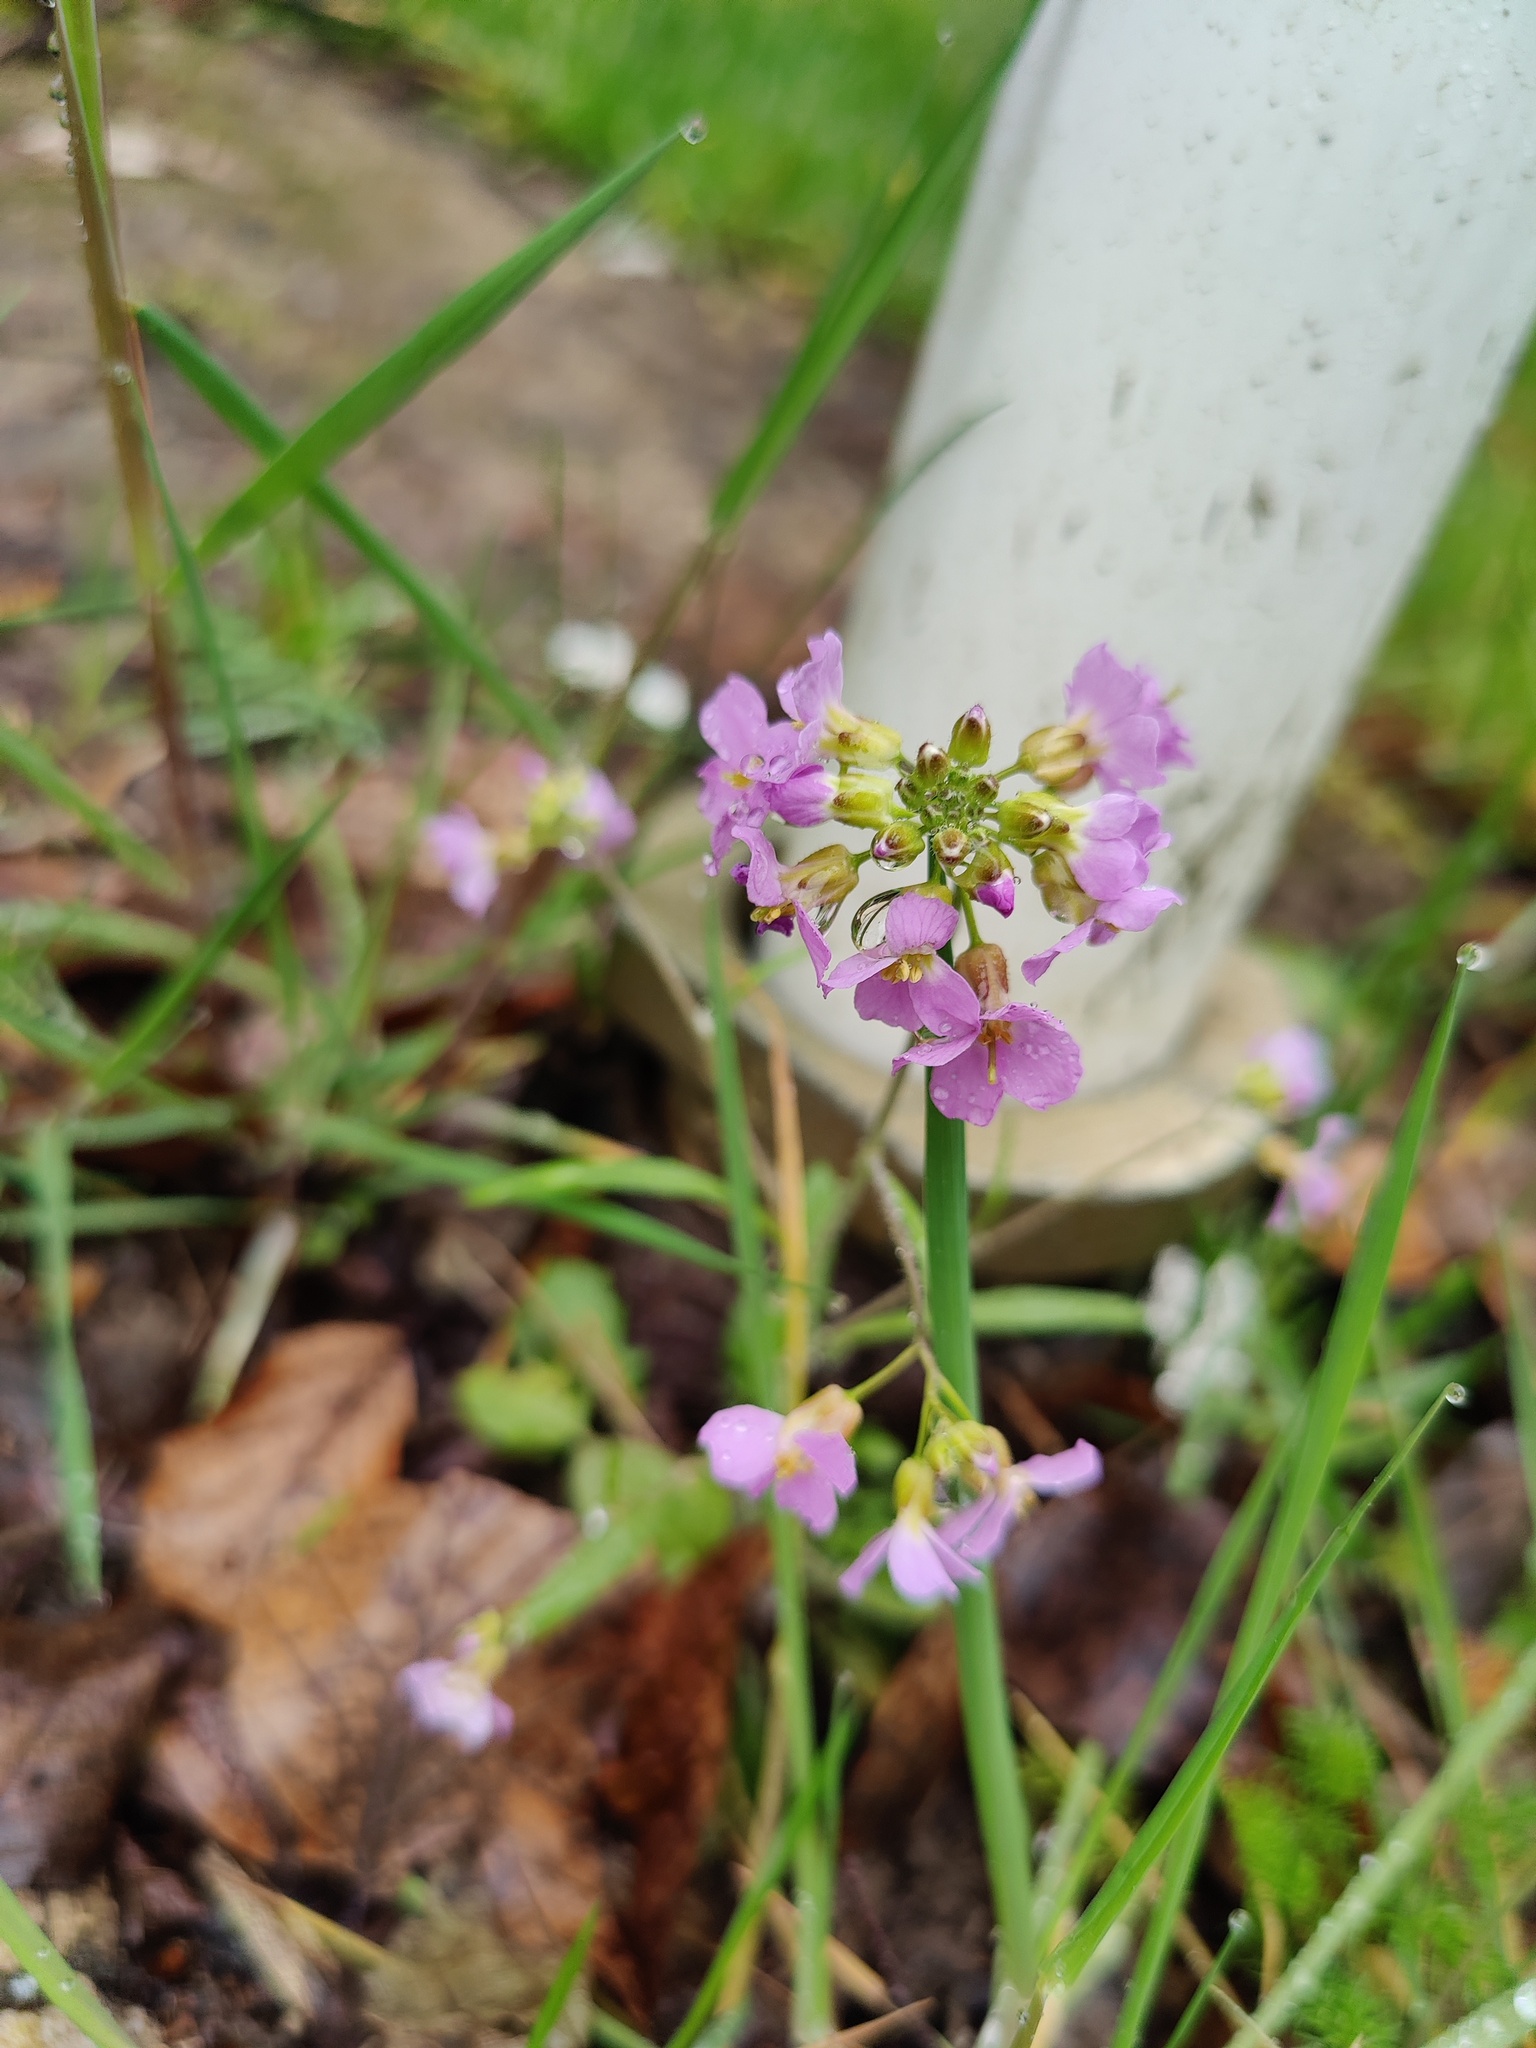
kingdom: Plantae
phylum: Tracheophyta
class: Magnoliopsida
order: Brassicales
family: Brassicaceae
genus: Arabidopsis
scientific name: Arabidopsis arenosa
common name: Sand rock-cress
